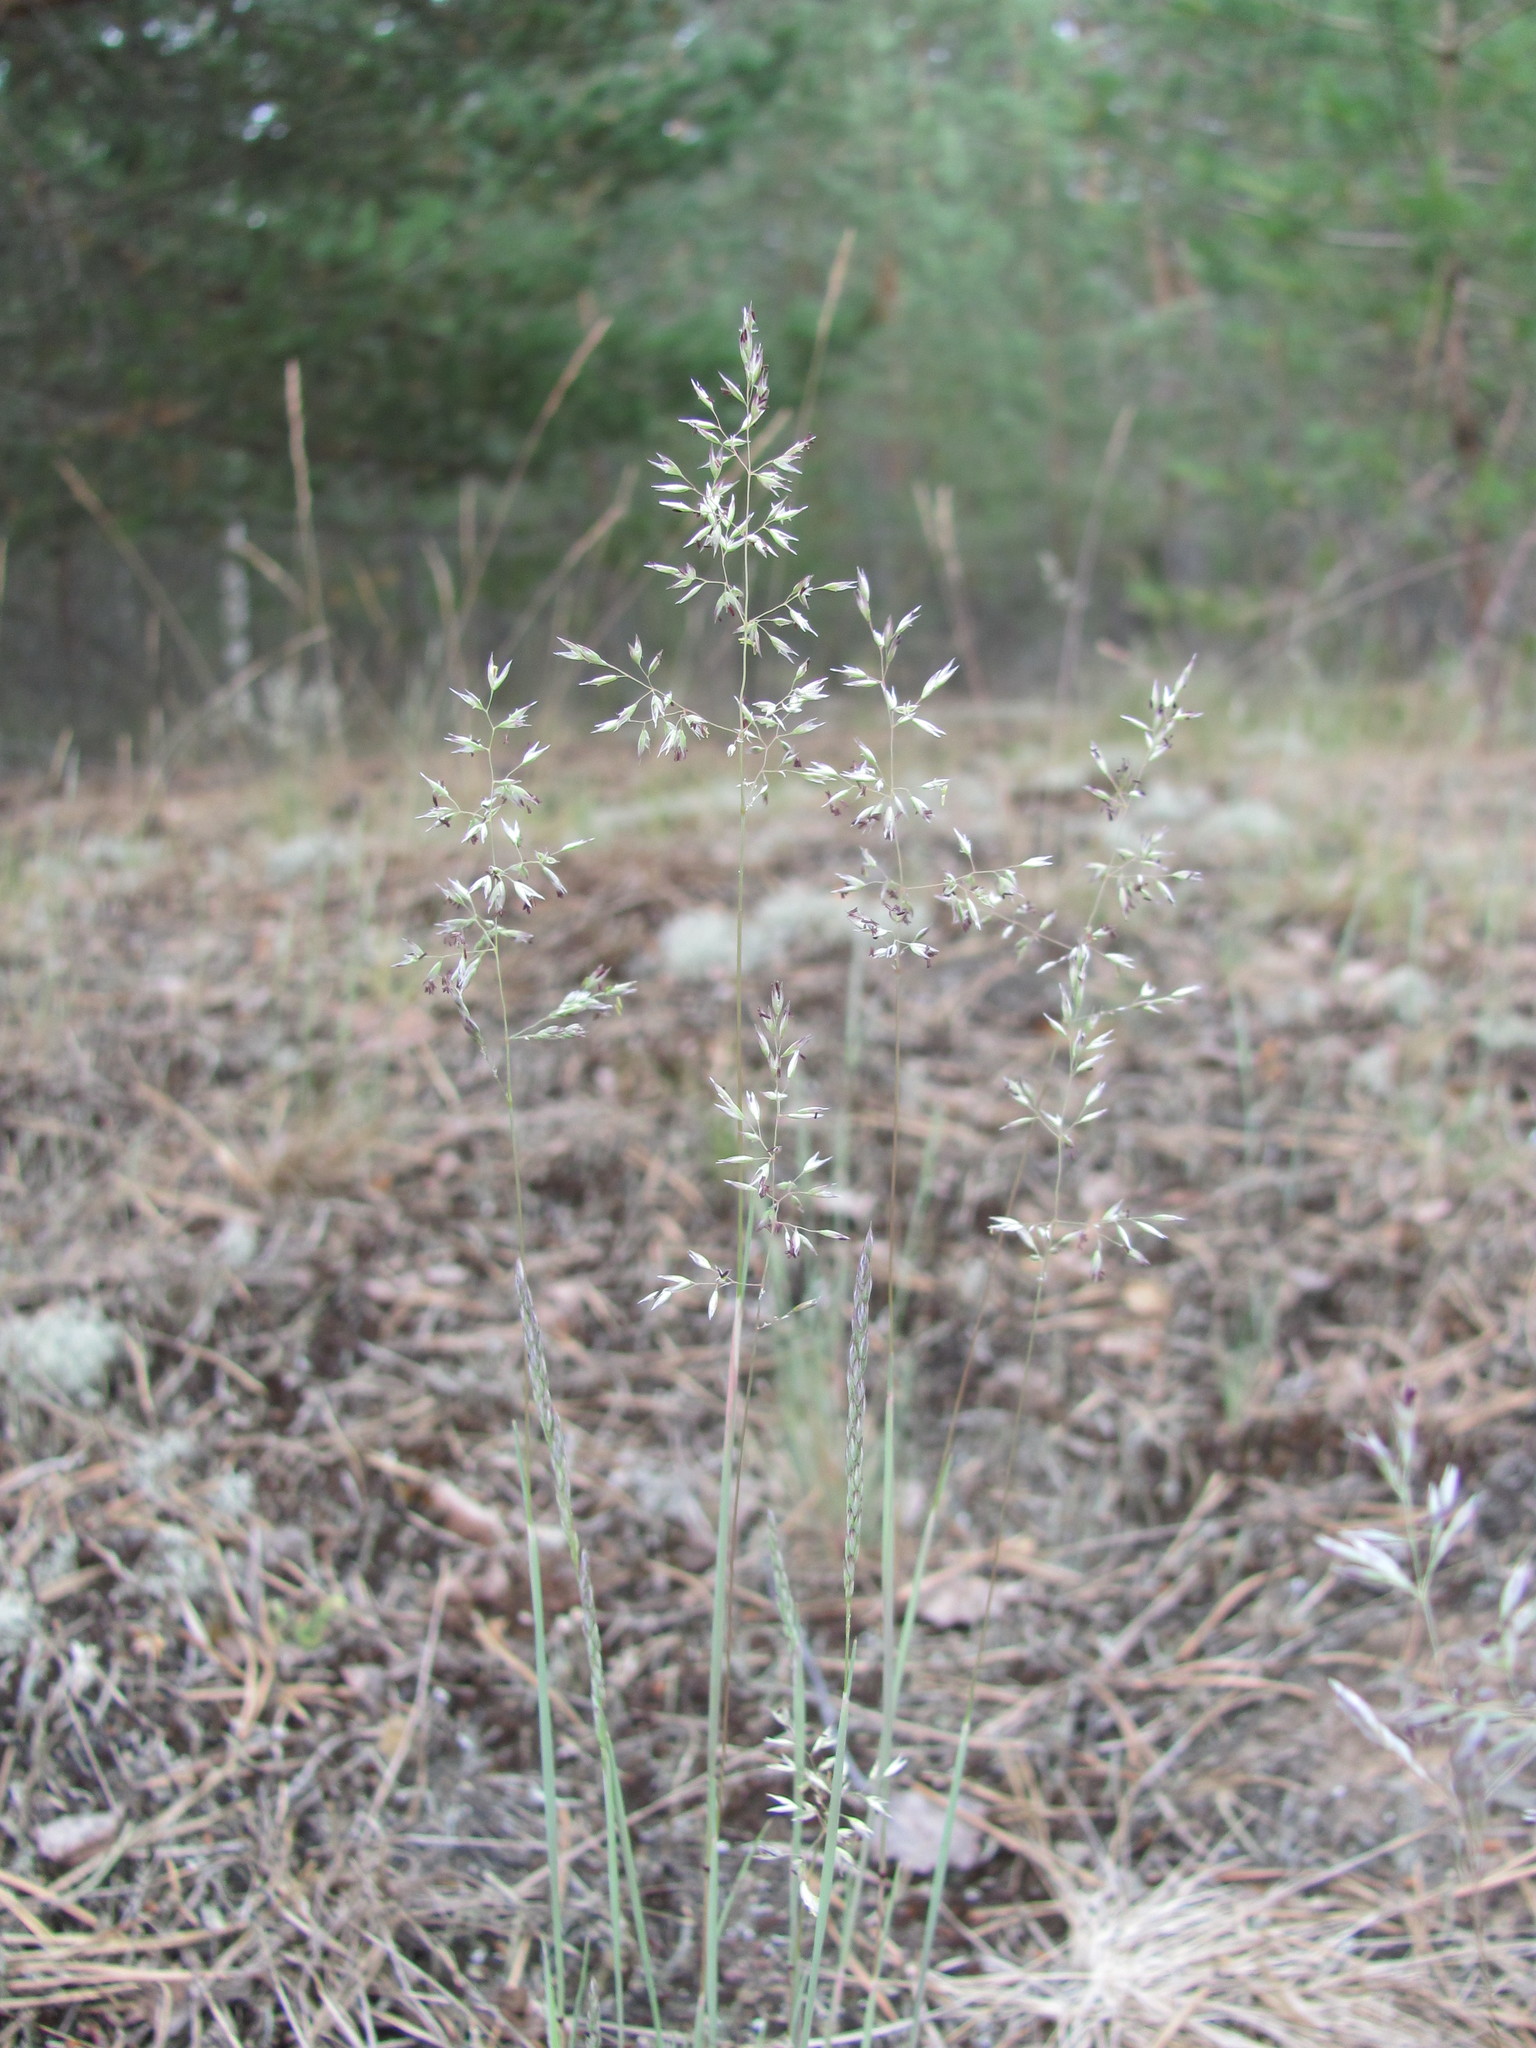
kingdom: Plantae
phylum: Tracheophyta
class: Liliopsida
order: Poales
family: Poaceae
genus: Corynephorus
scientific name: Corynephorus canescens
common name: Grey hair-grass
